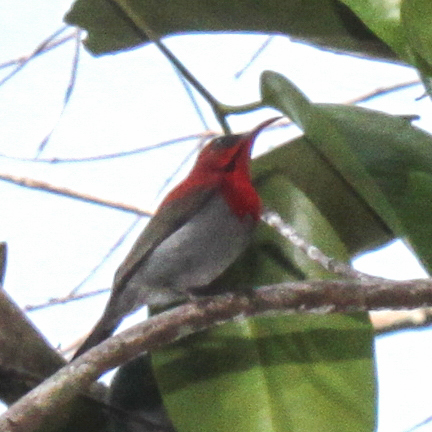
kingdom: Animalia
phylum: Chordata
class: Aves
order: Passeriformes
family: Nectariniidae
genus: Aethopyga
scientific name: Aethopyga siparaja
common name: Crimson sunbird
